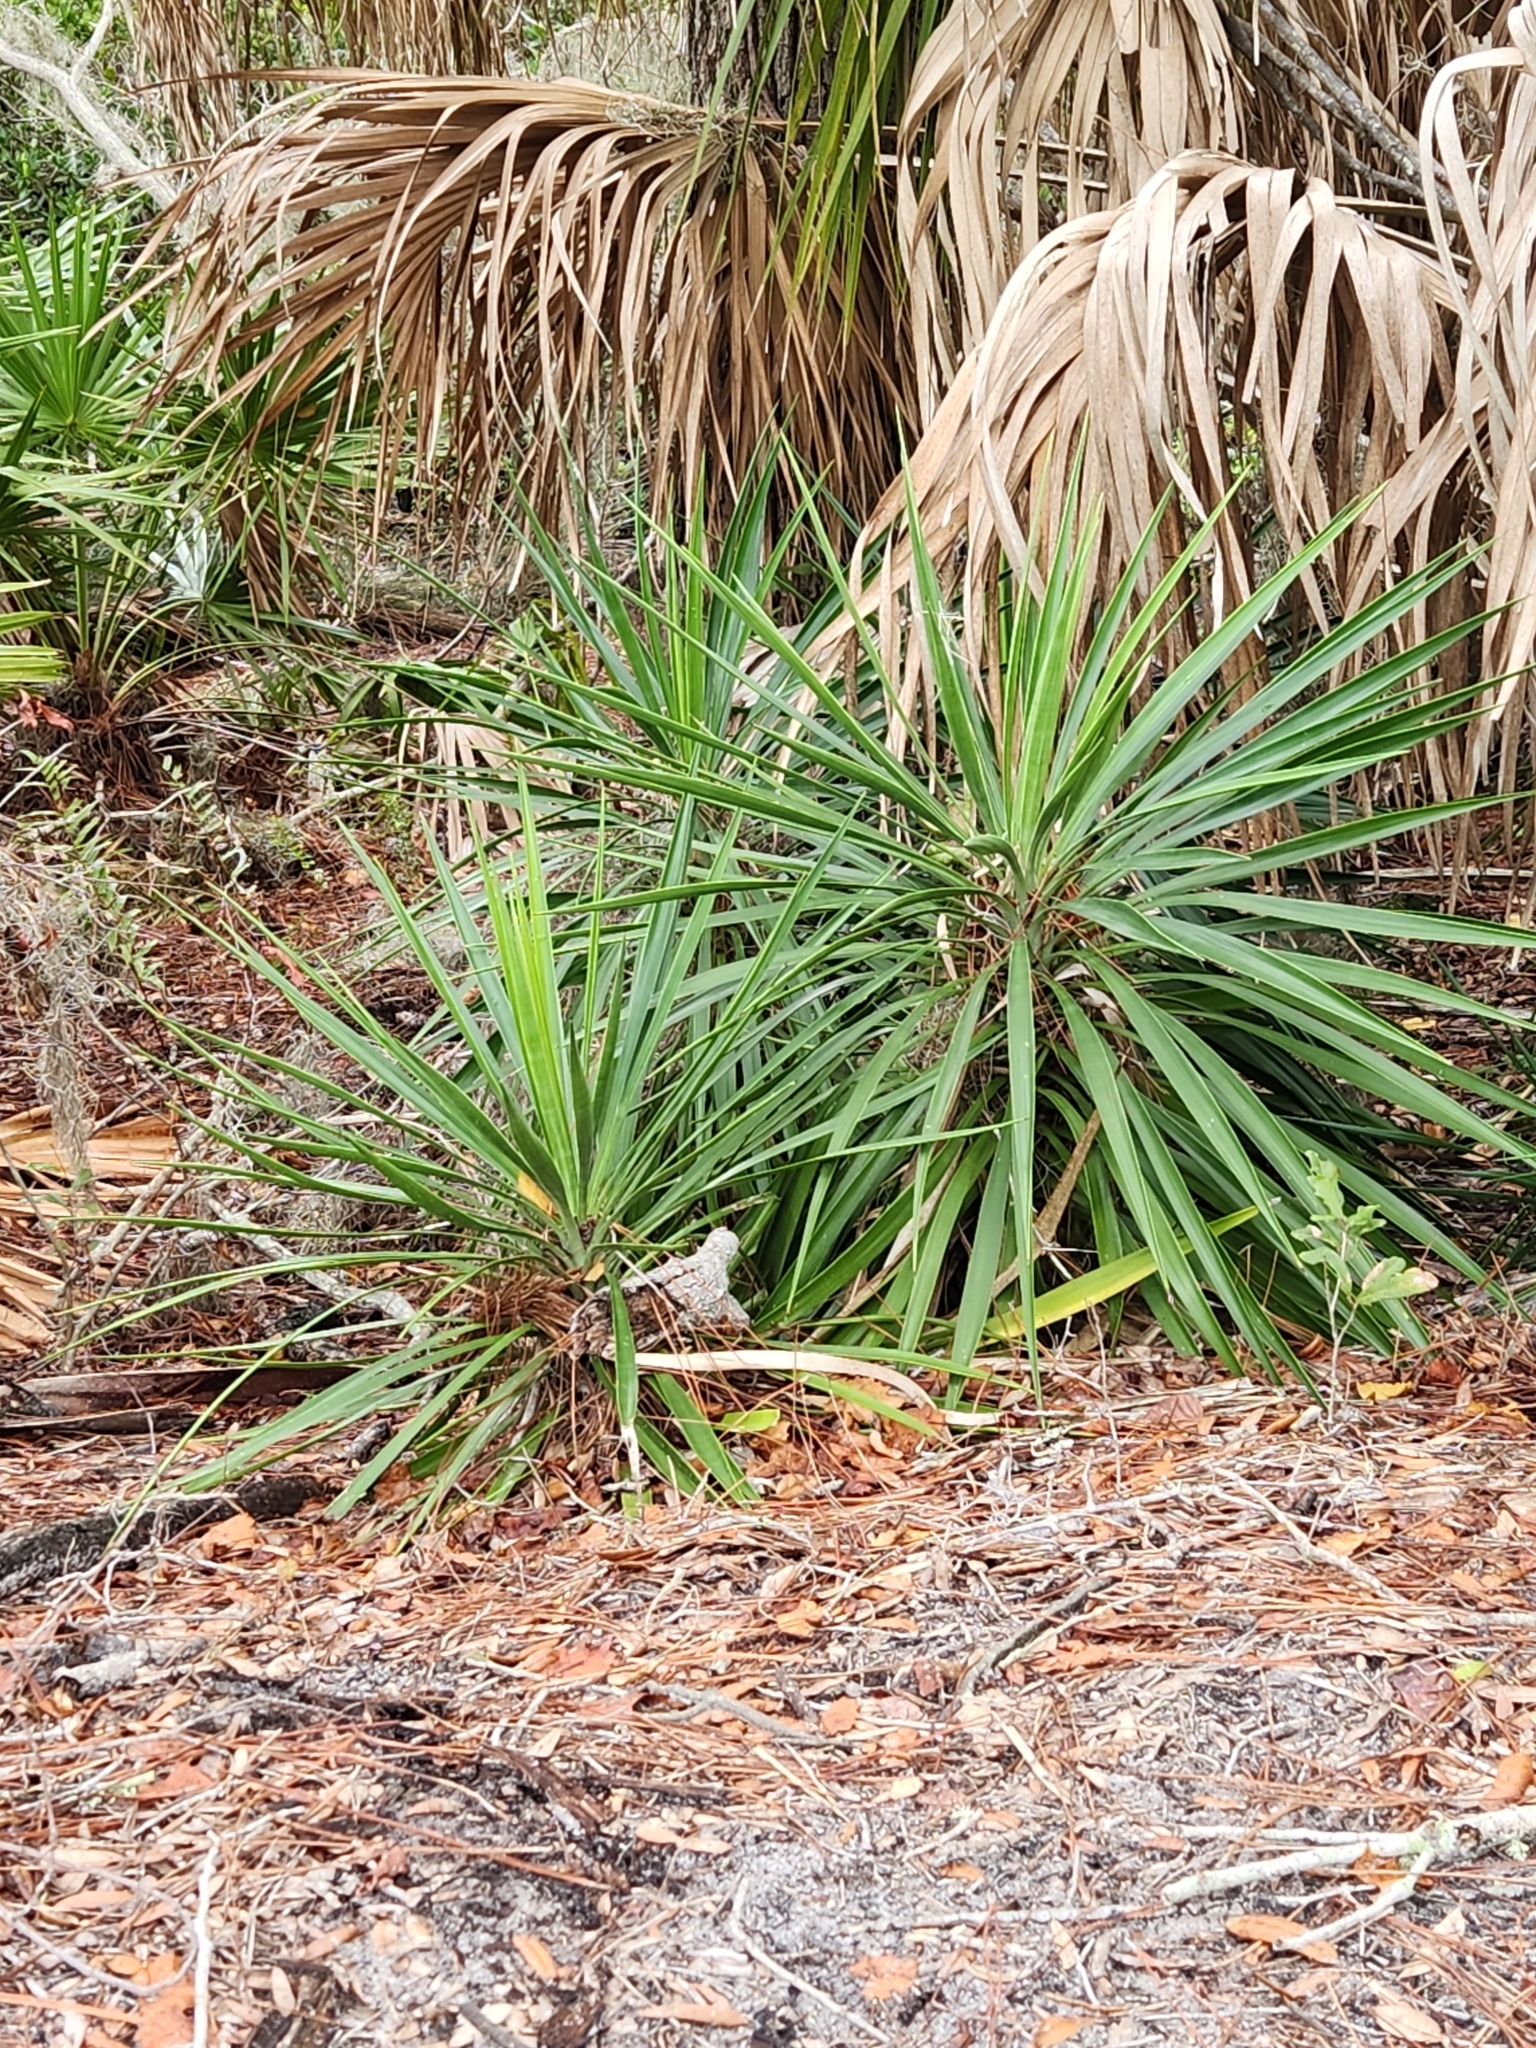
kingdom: Plantae
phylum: Tracheophyta
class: Liliopsida
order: Asparagales
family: Asparagaceae
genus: Yucca
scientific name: Yucca aloifolia
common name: Aloe yucca
